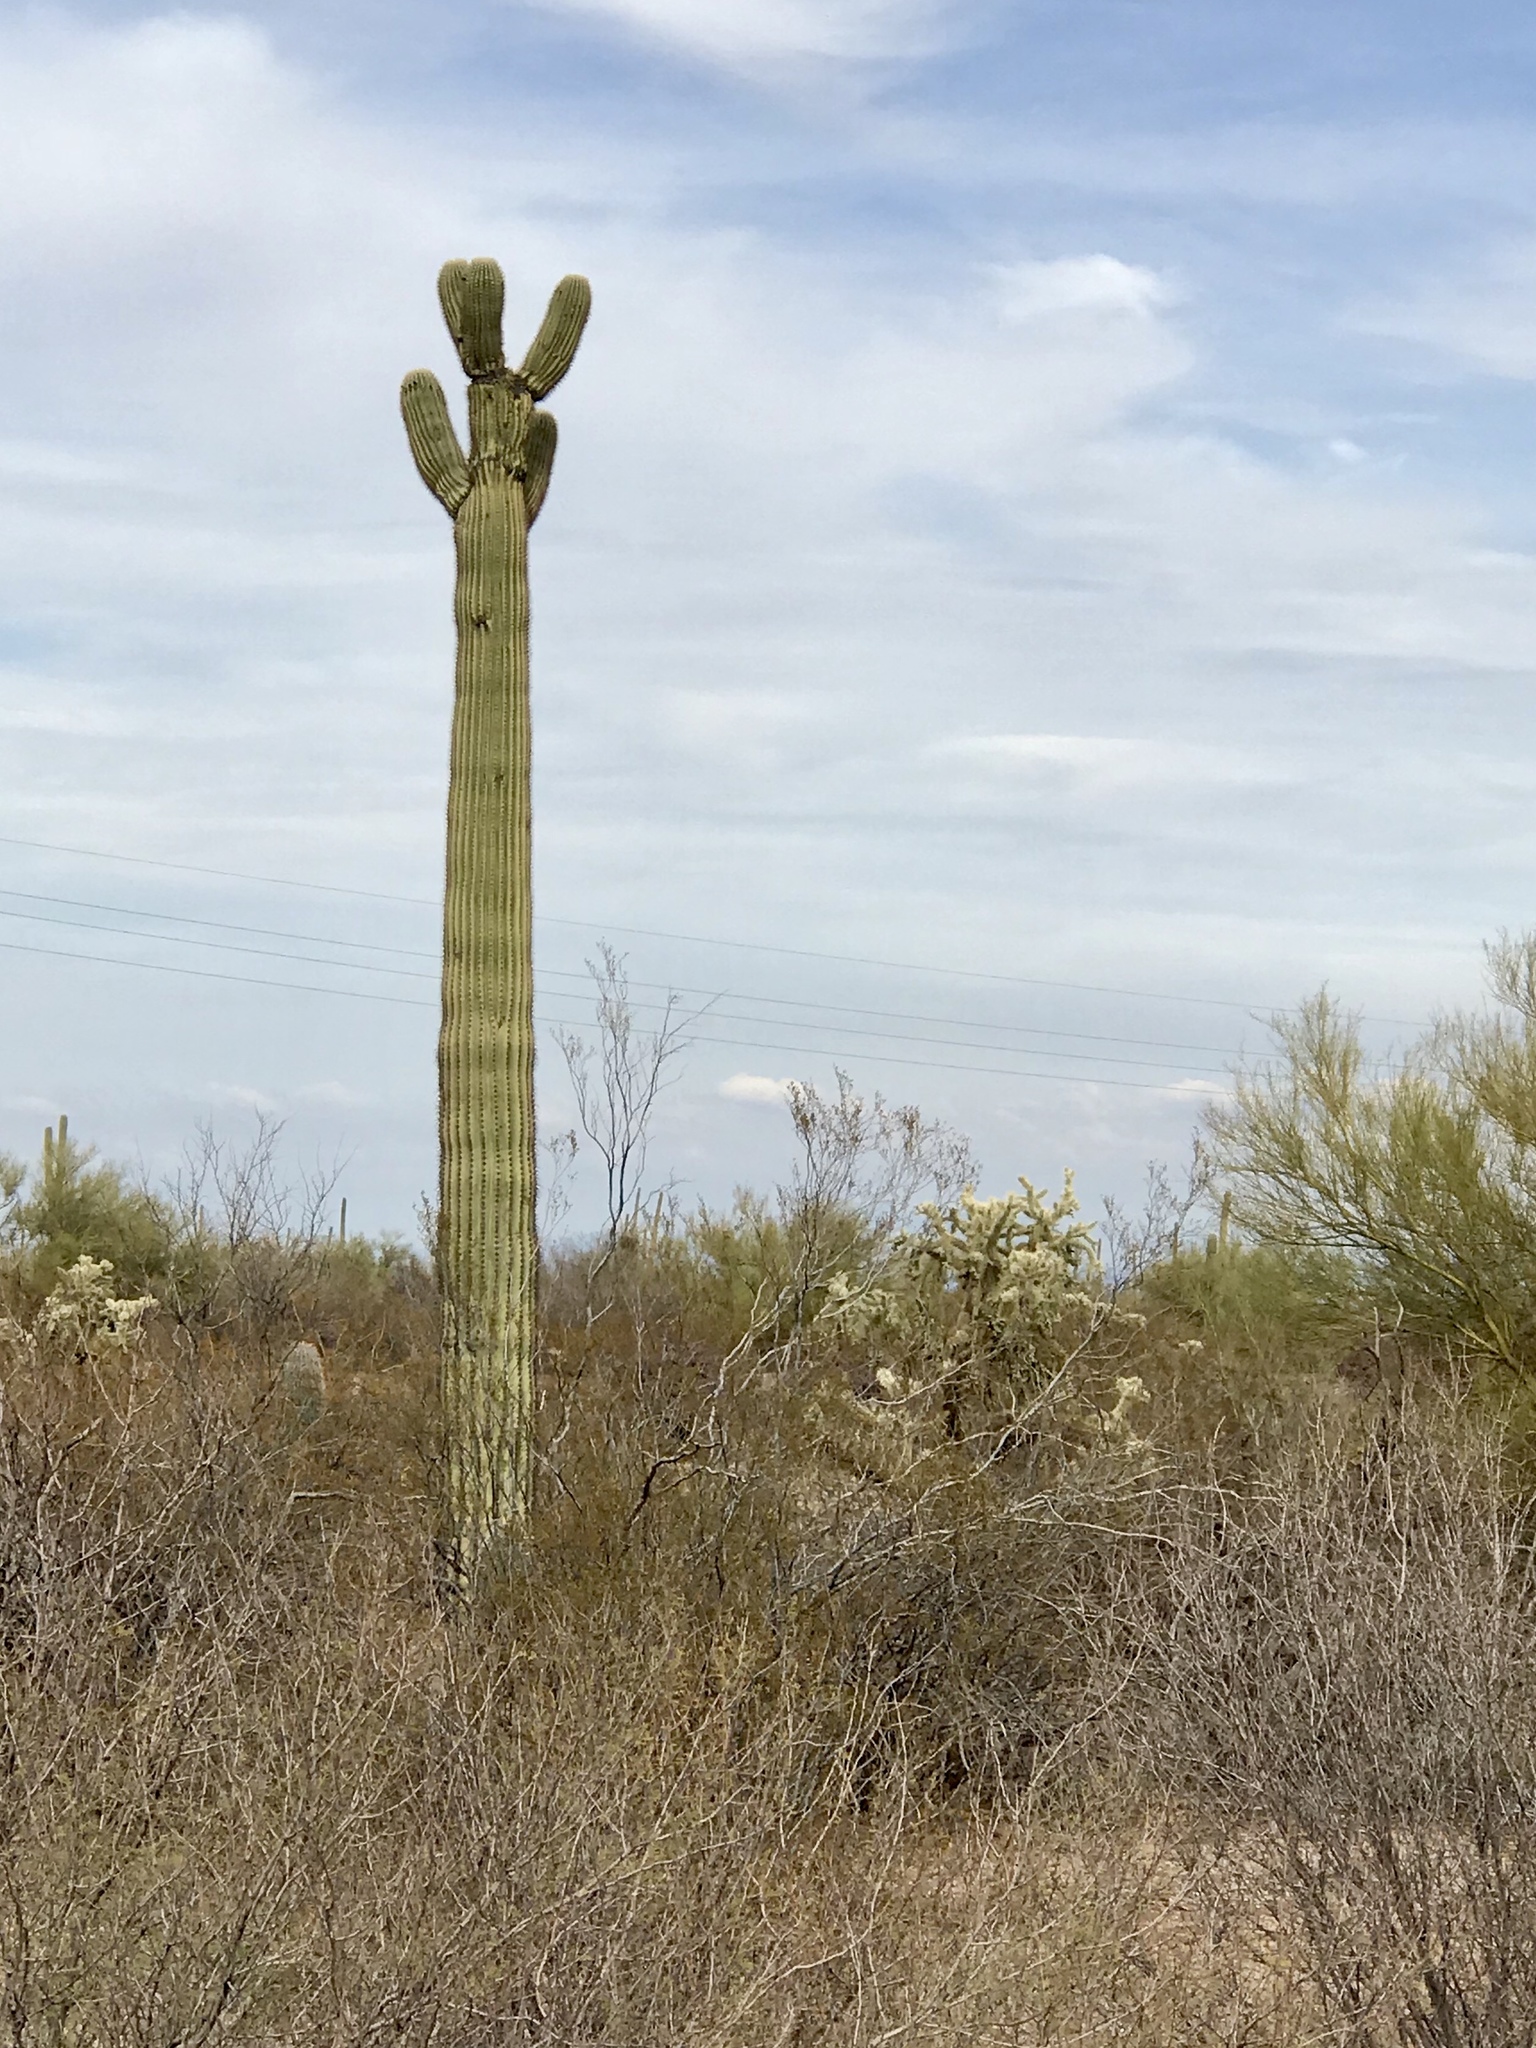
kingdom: Plantae
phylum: Tracheophyta
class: Magnoliopsida
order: Caryophyllales
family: Cactaceae
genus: Carnegiea
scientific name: Carnegiea gigantea
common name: Saguaro
